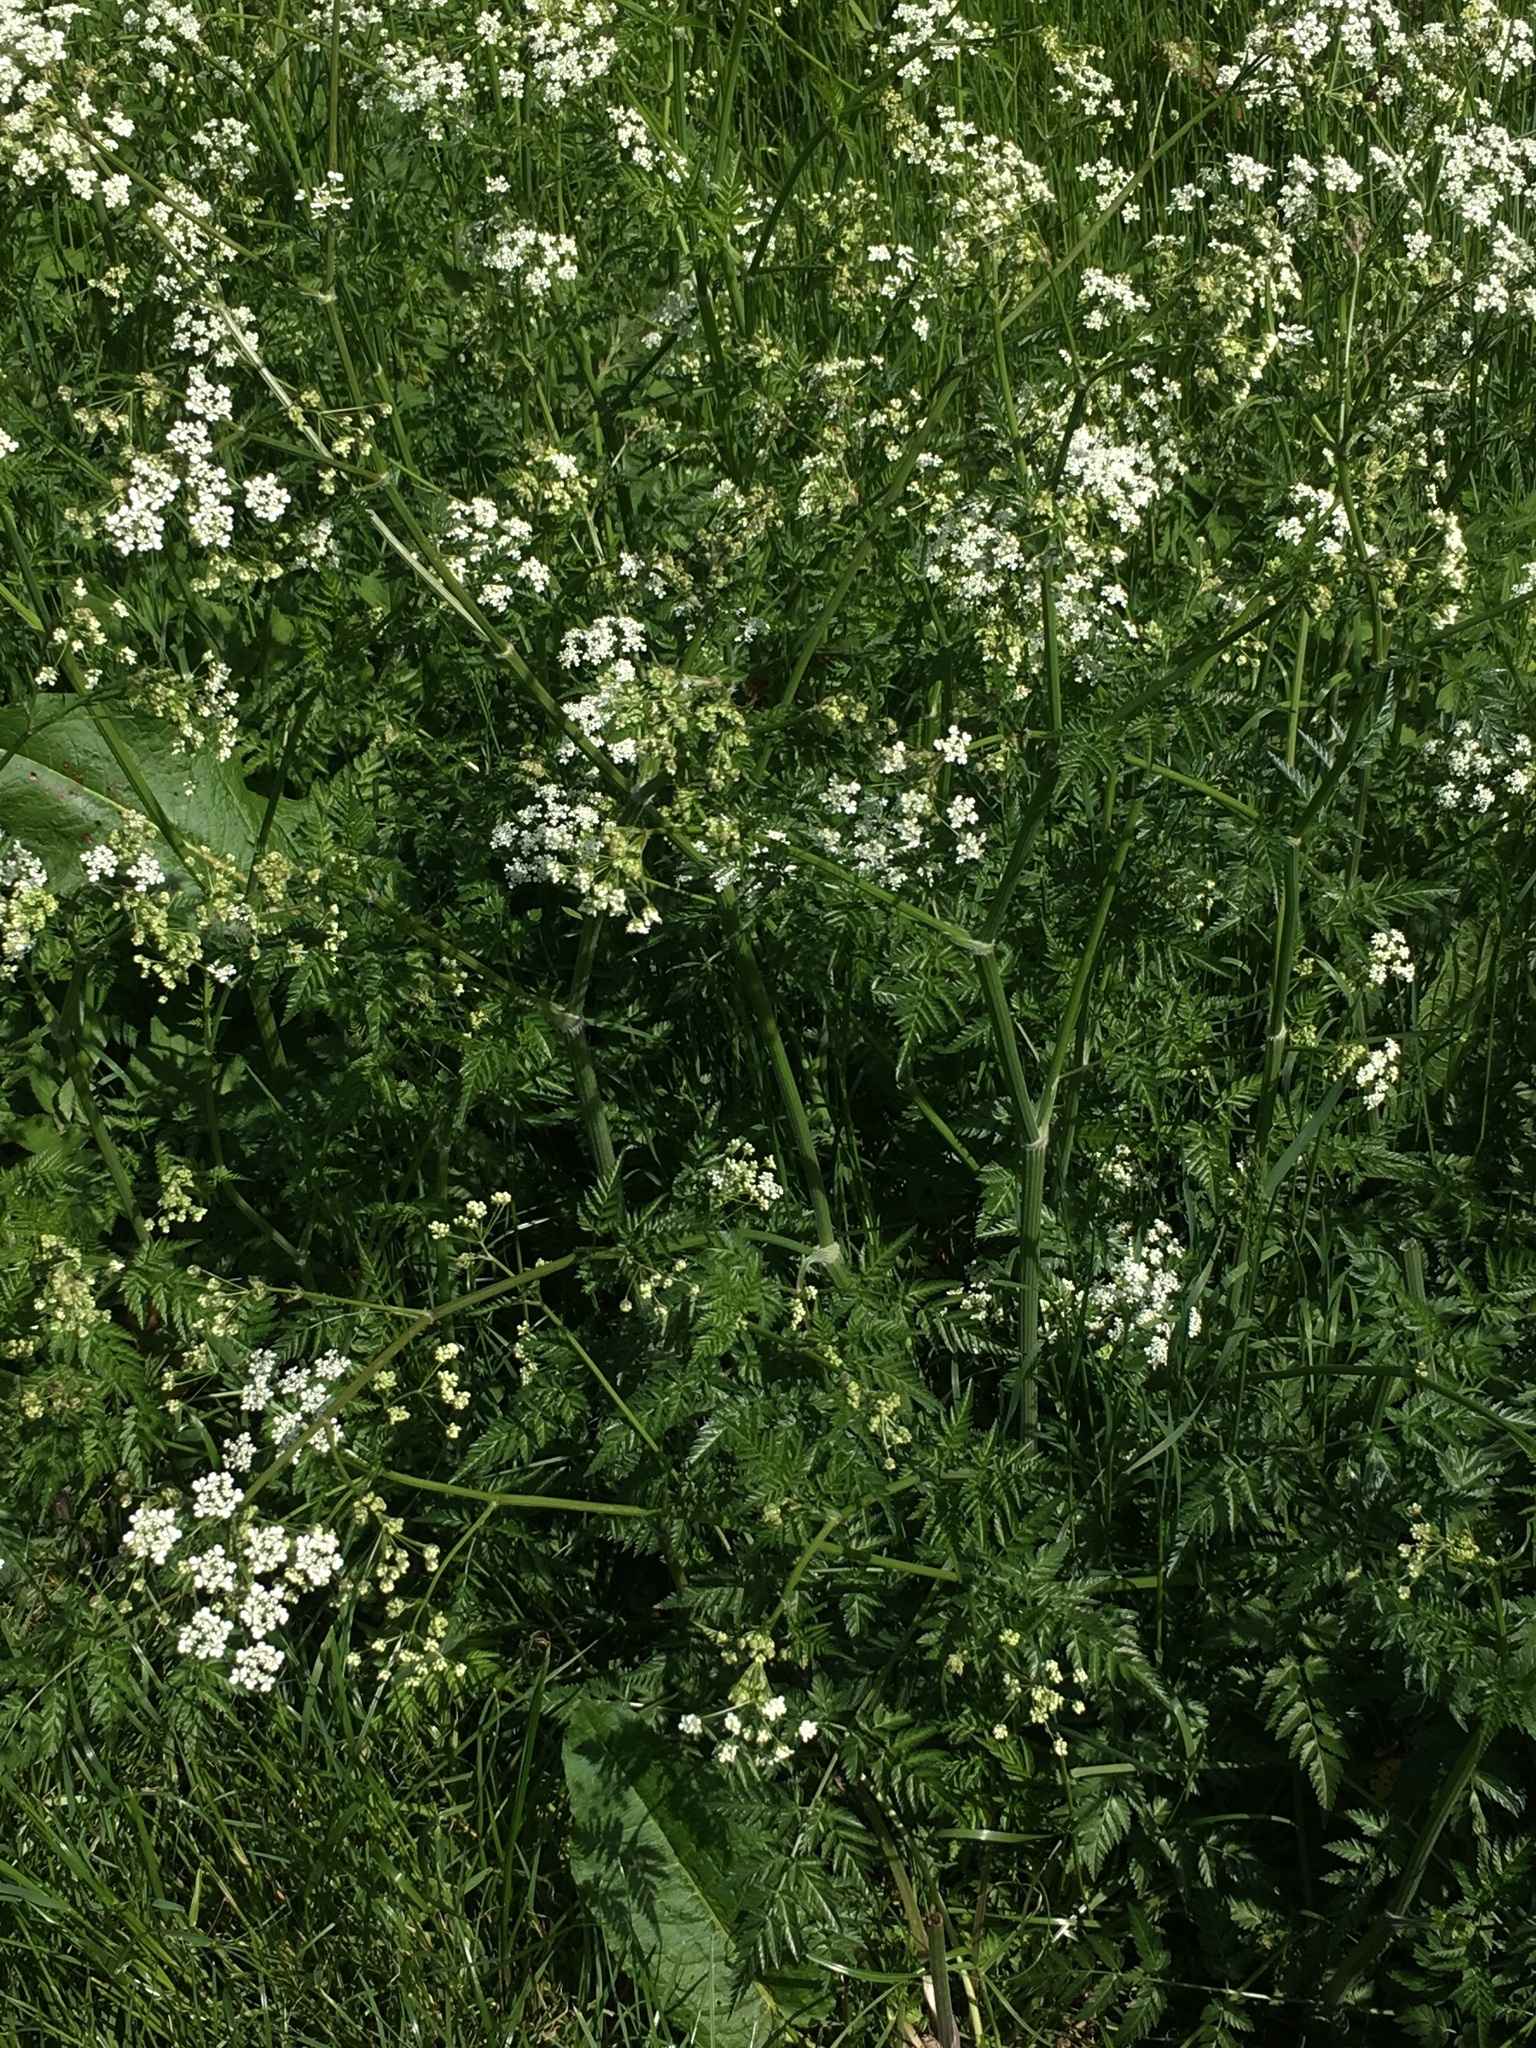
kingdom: Plantae
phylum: Tracheophyta
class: Magnoliopsida
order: Apiales
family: Apiaceae
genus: Anthriscus
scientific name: Anthriscus sylvestris
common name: Cow parsley
